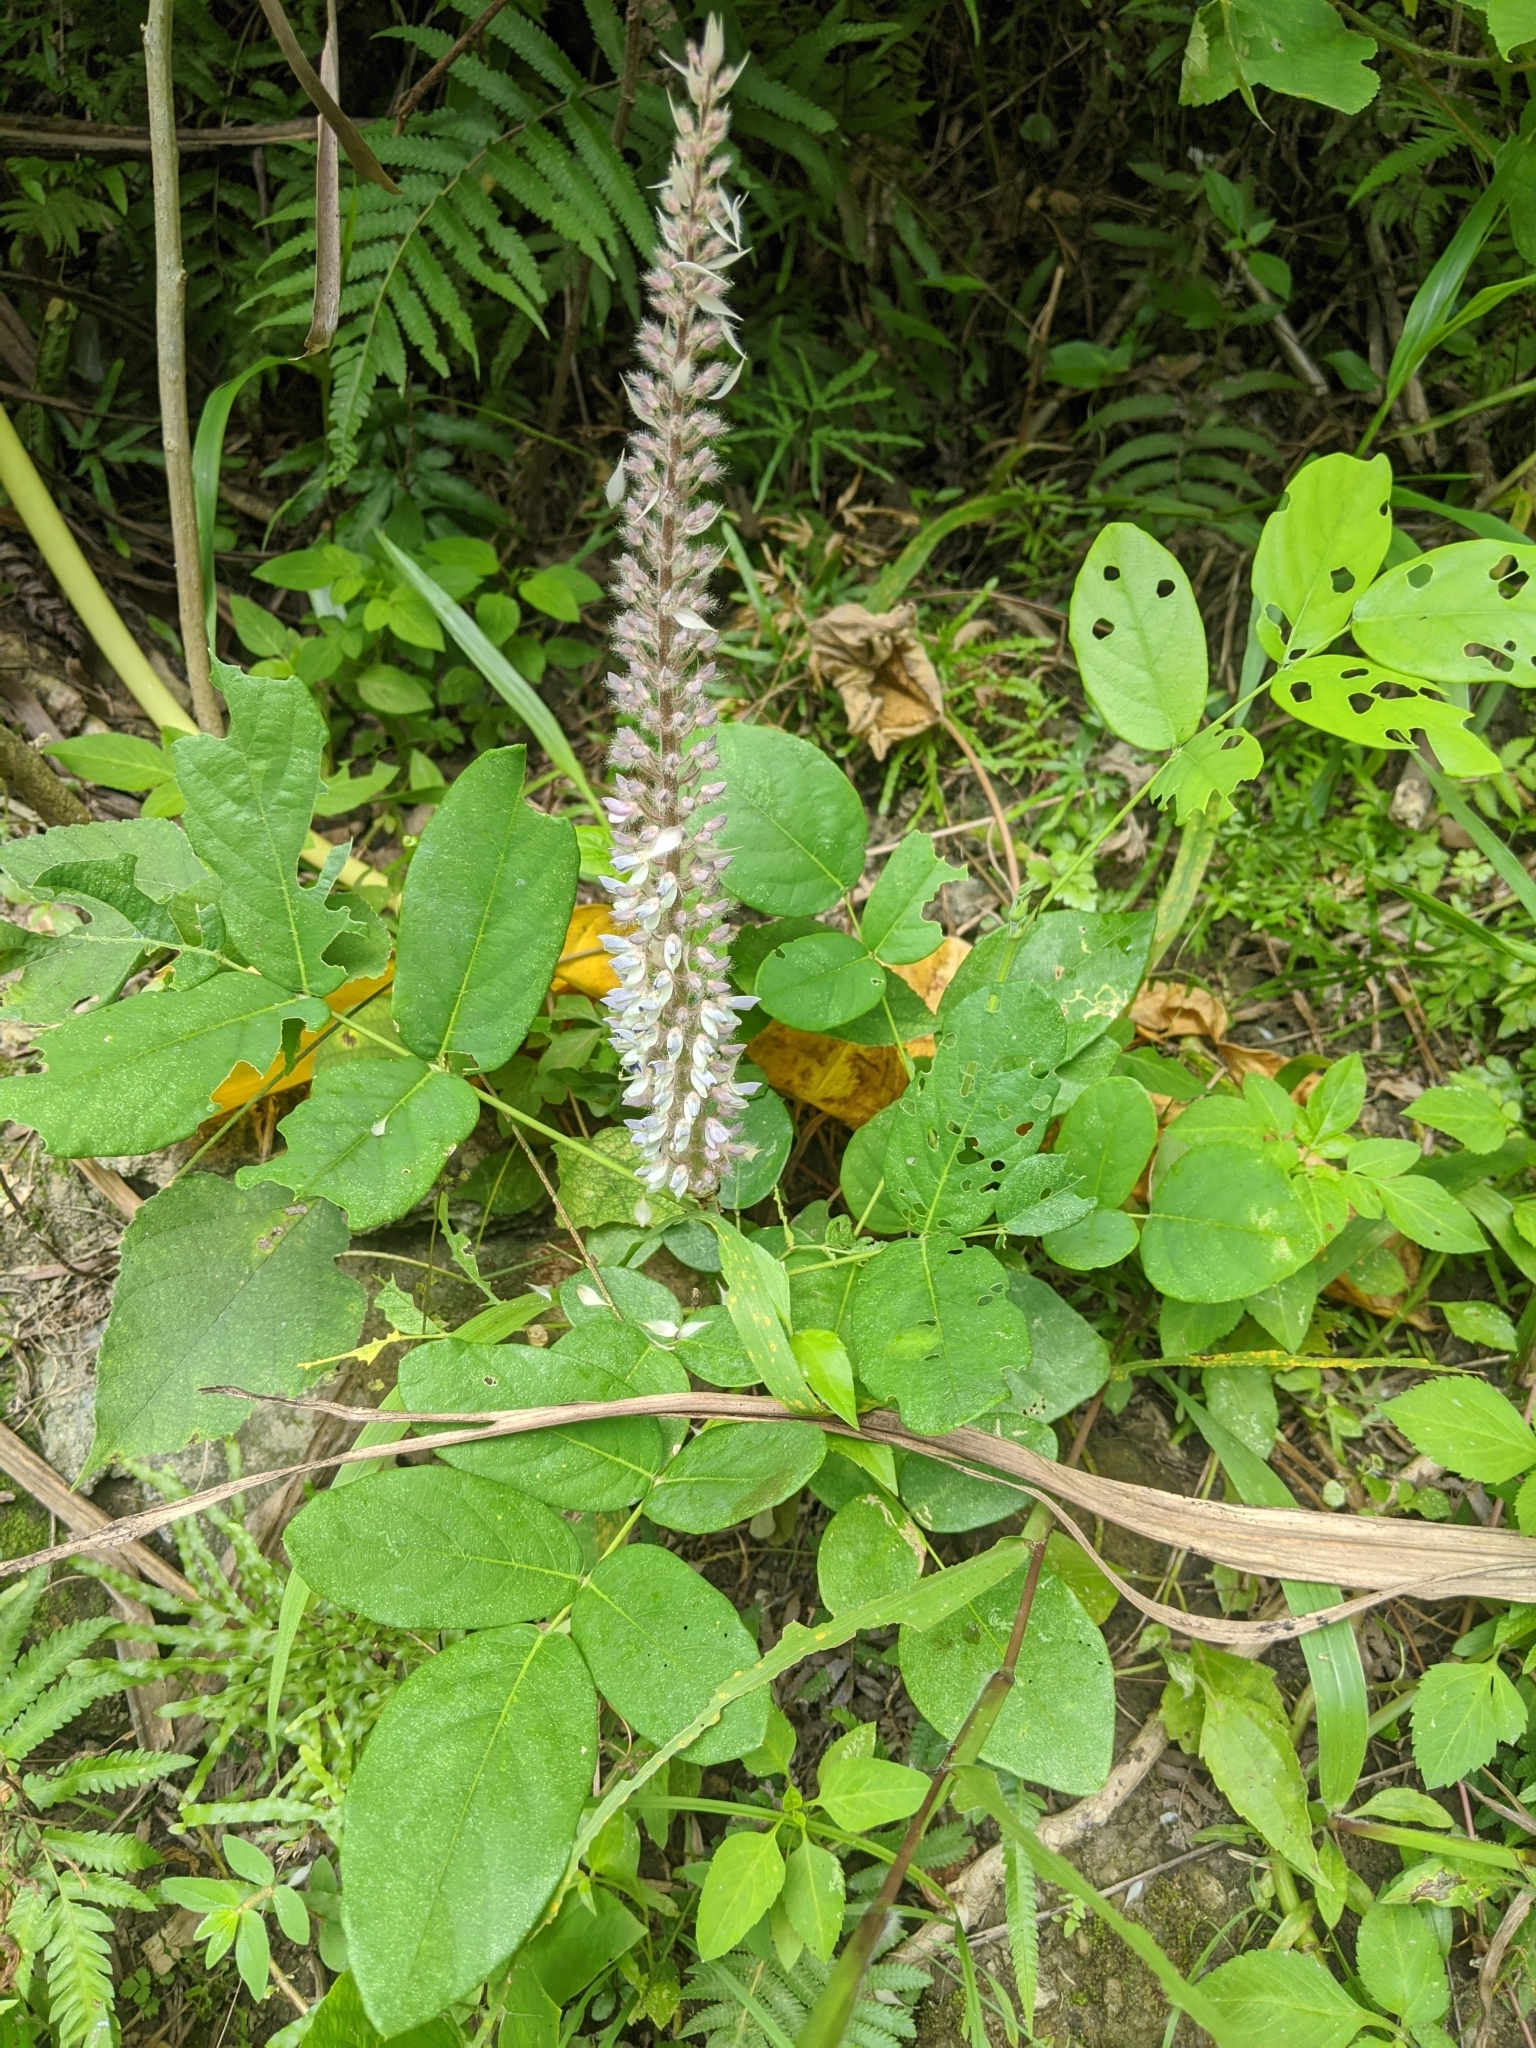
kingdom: Plantae
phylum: Tracheophyta
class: Magnoliopsida
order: Fabales
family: Fabaceae
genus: Uraria
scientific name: Uraria crinita
